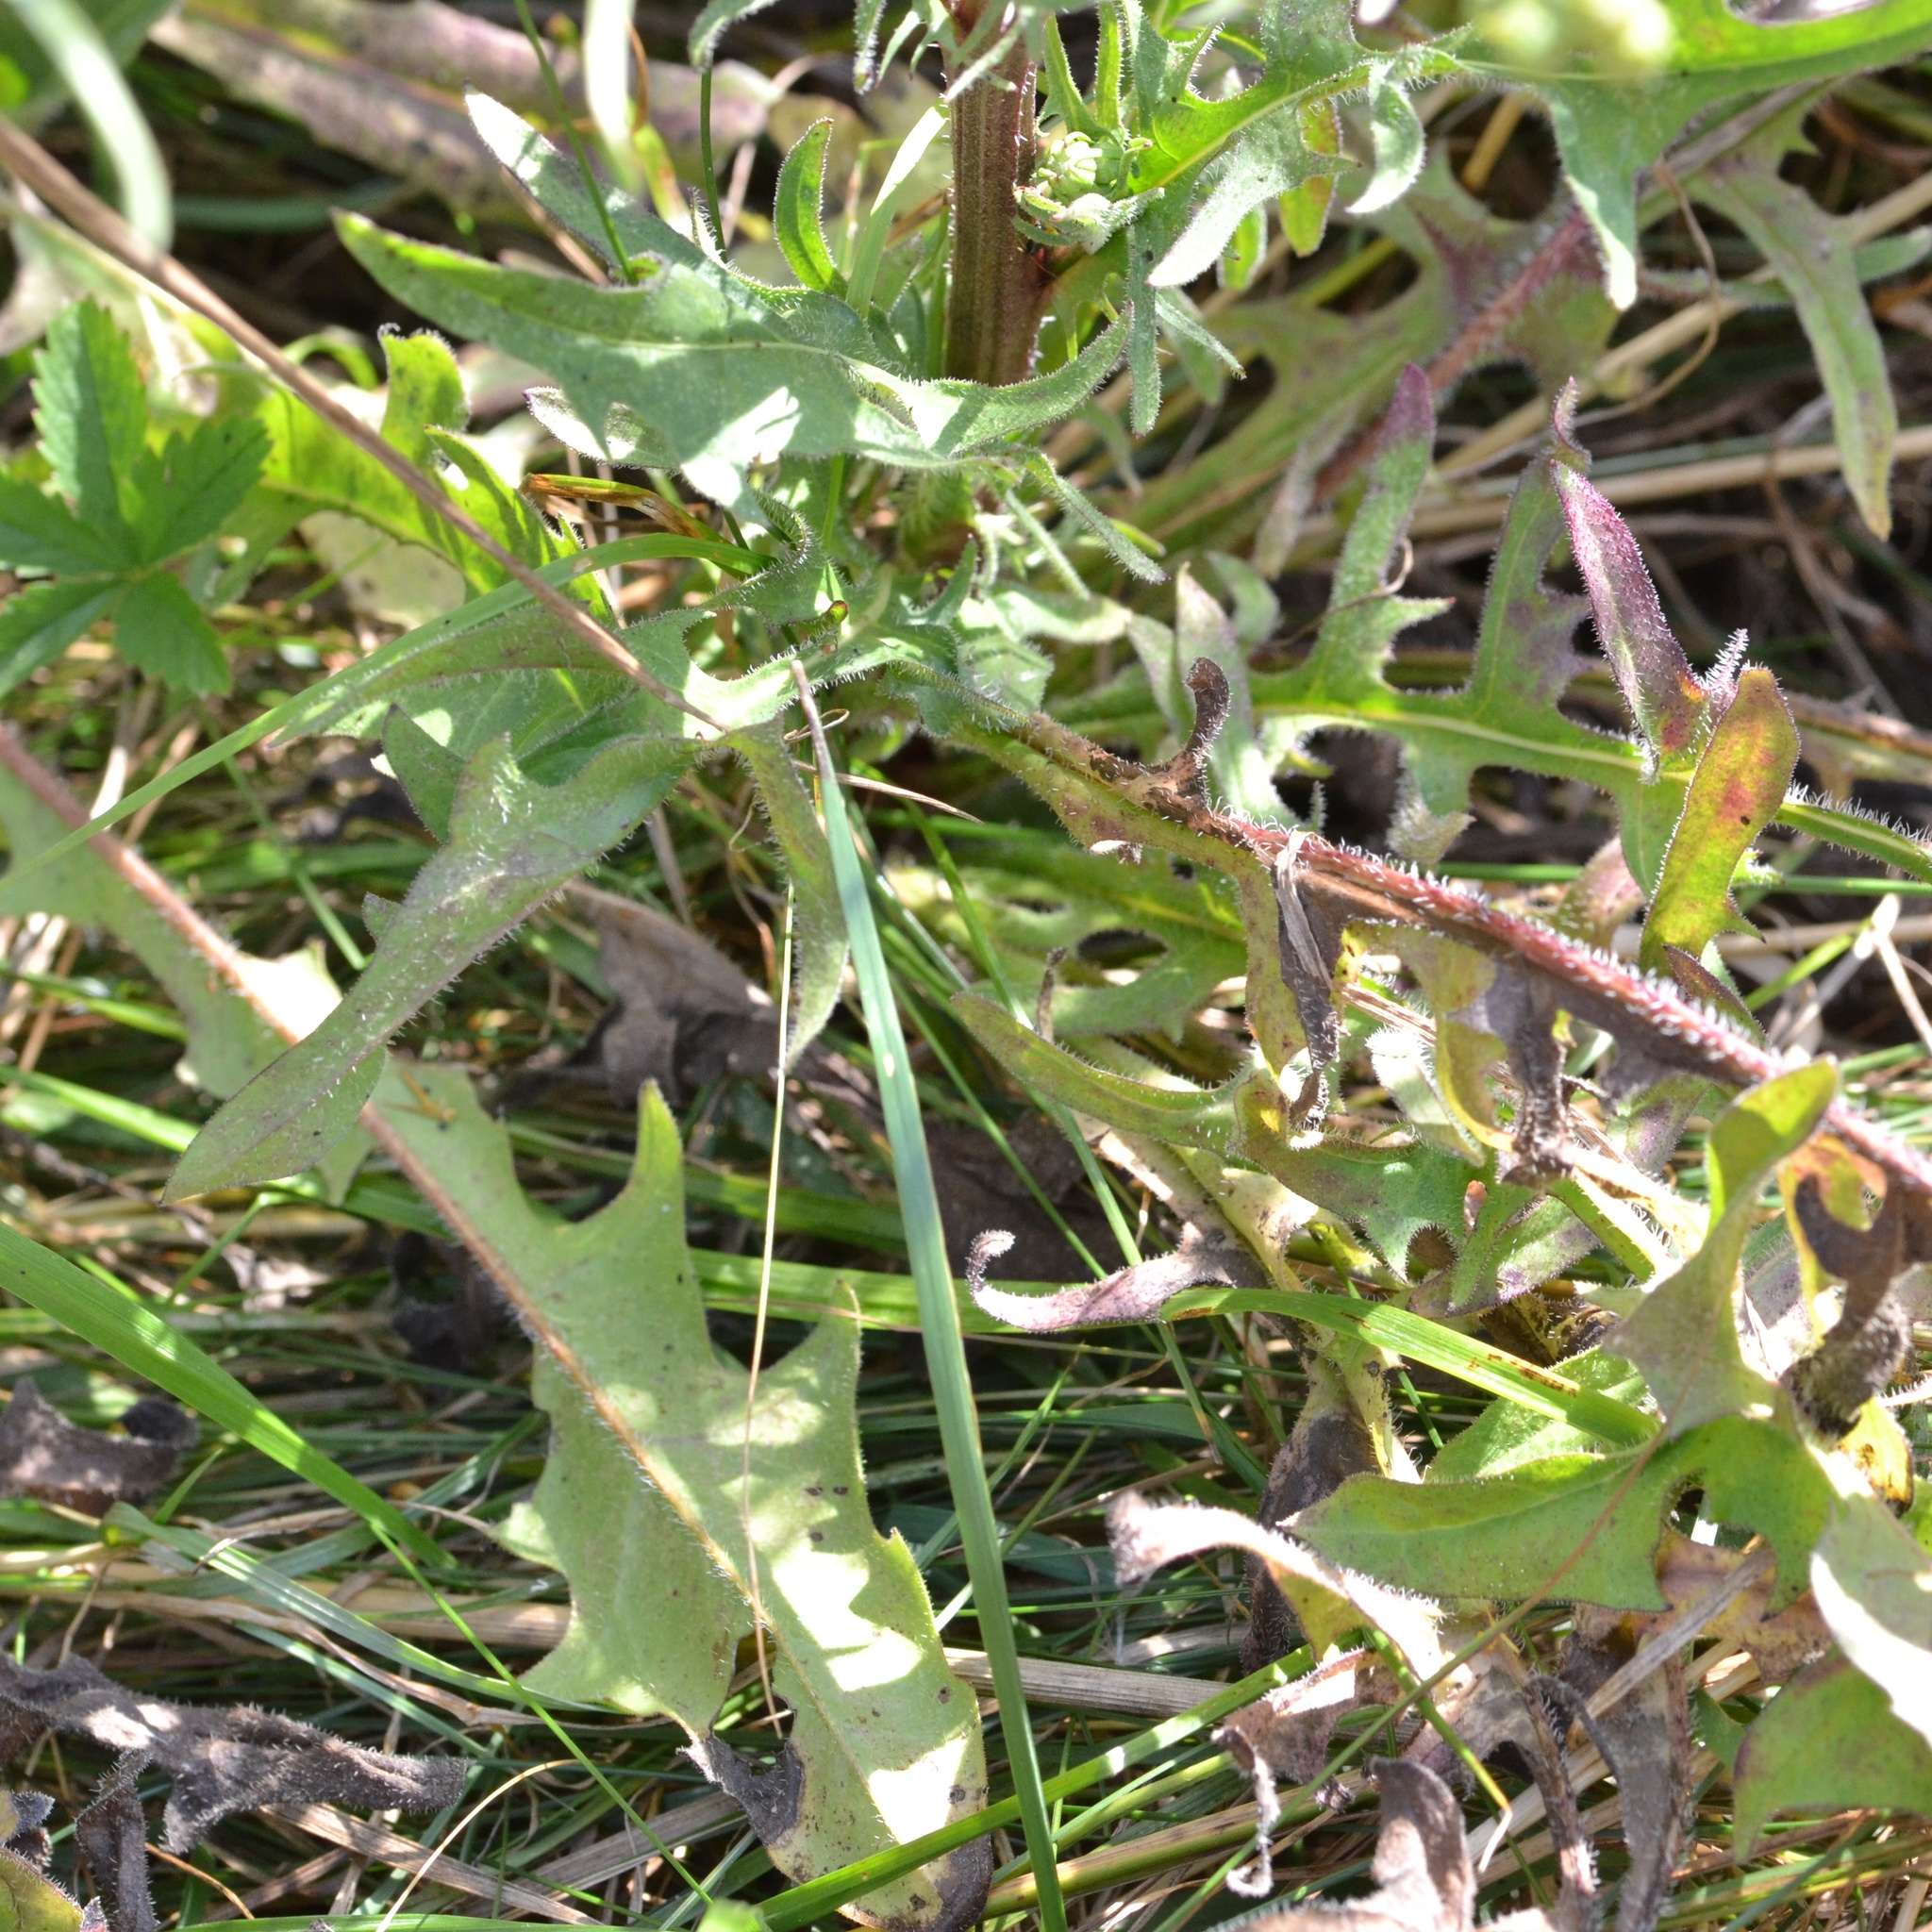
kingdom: Plantae
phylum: Tracheophyta
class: Magnoliopsida
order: Asterales
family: Asteraceae
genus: Crepis
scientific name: Crepis biennis
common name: Rough hawk's-beard
